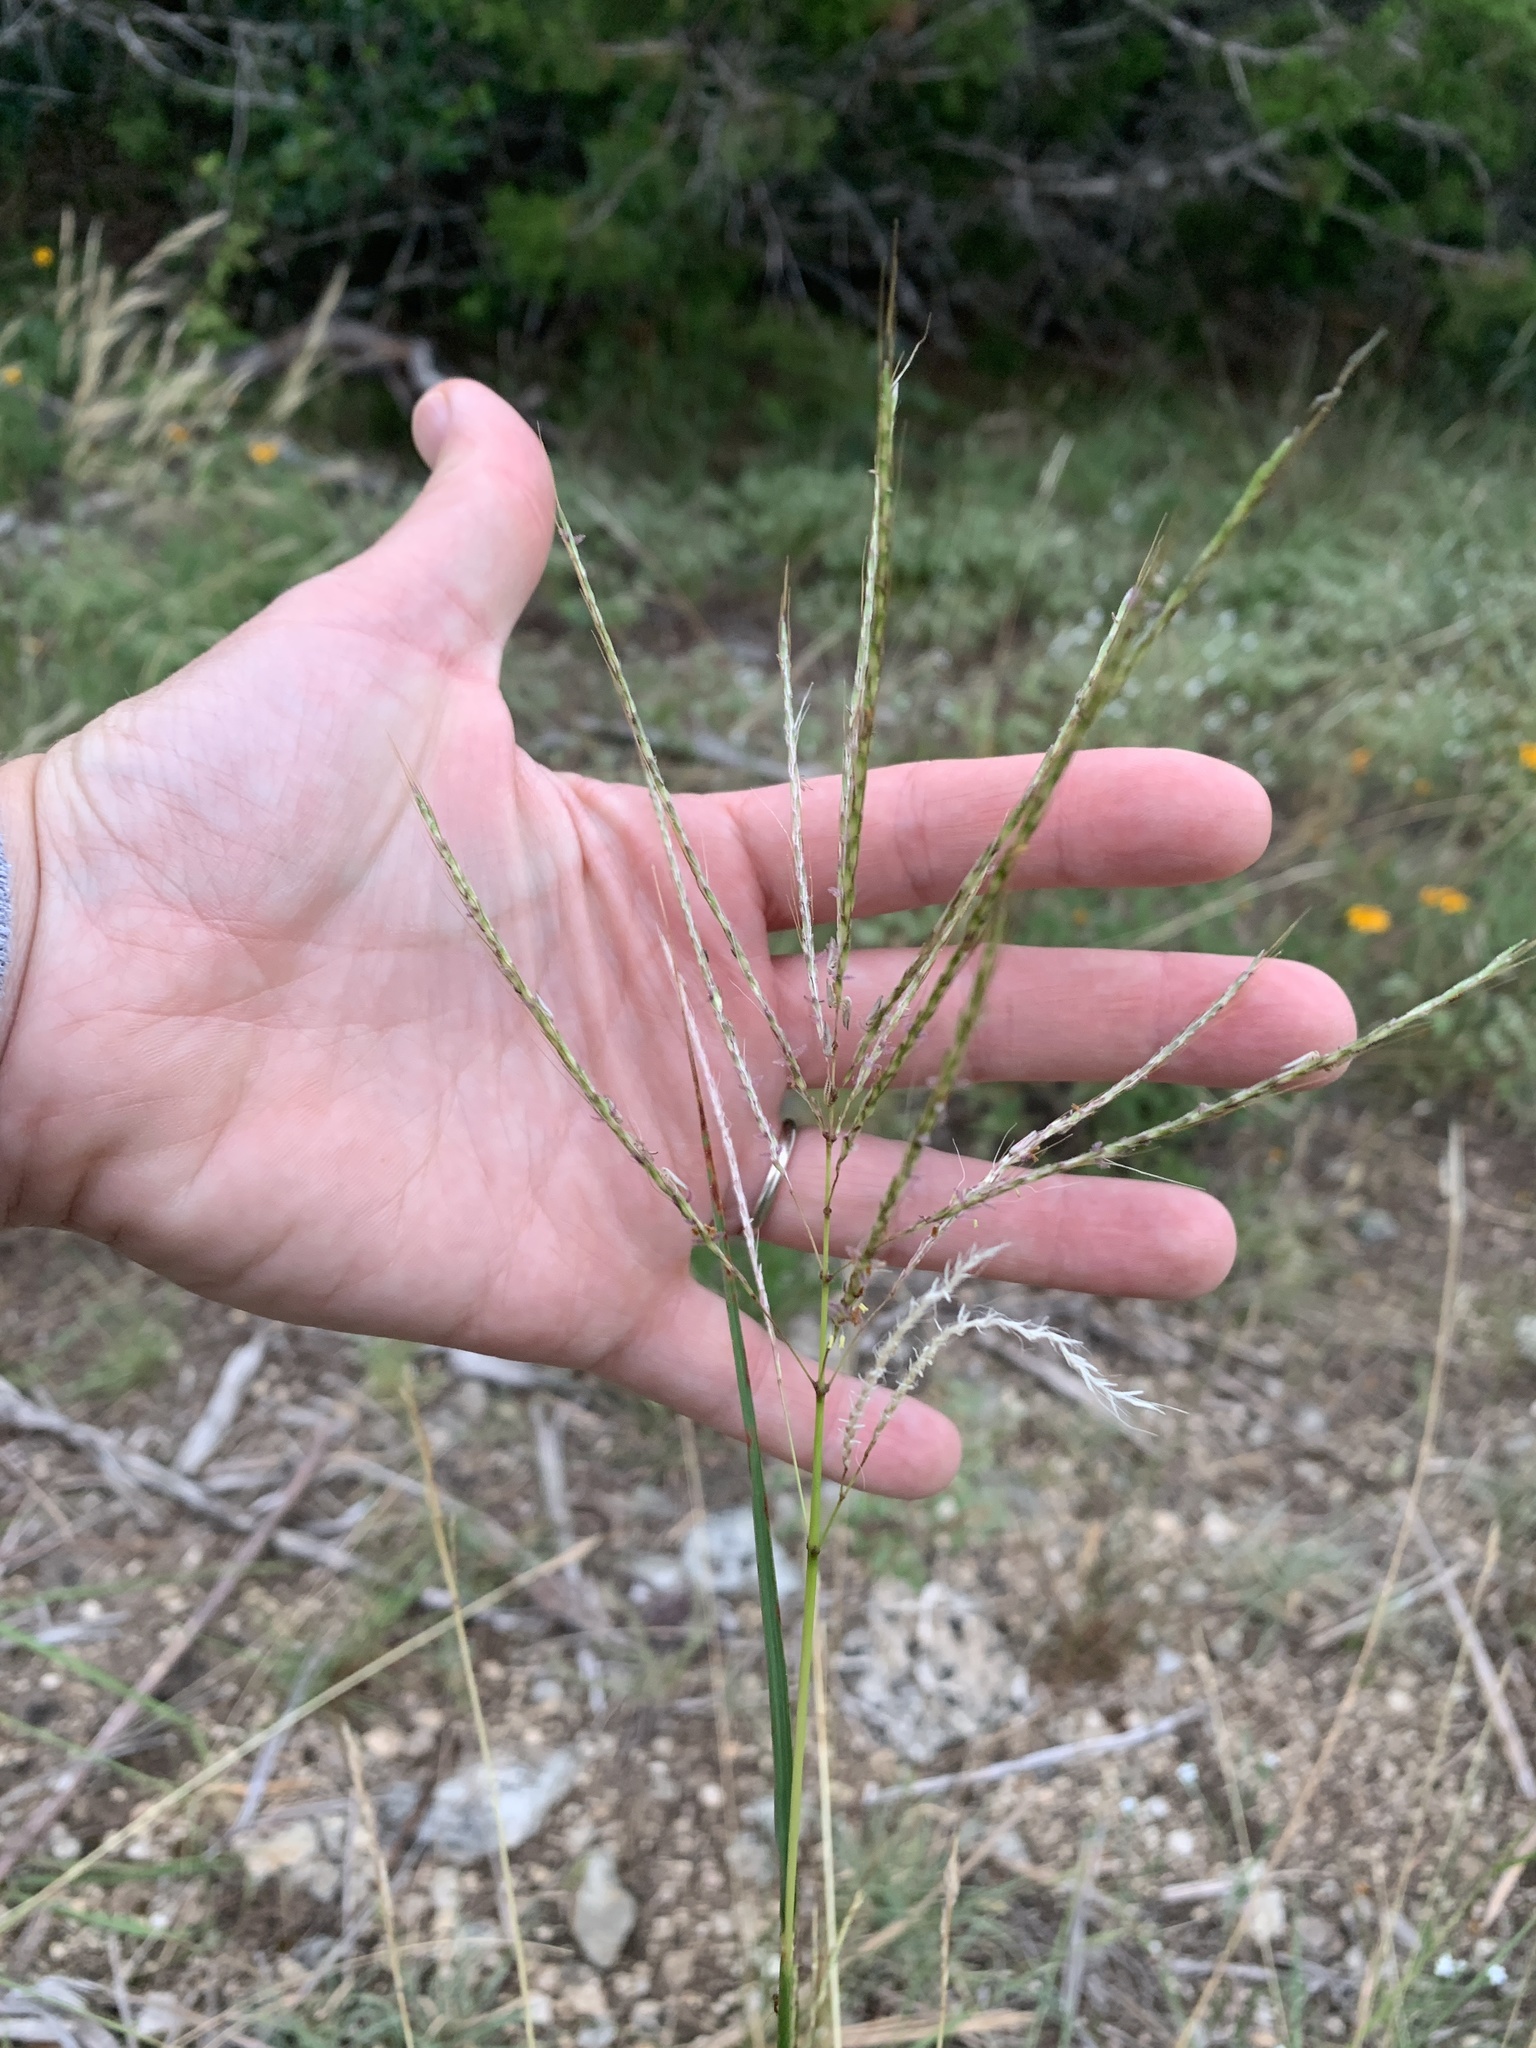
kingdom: Plantae
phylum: Tracheophyta
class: Liliopsida
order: Poales
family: Poaceae
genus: Bothriochloa
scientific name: Bothriochloa bladhii
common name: Caucasian bluestem
